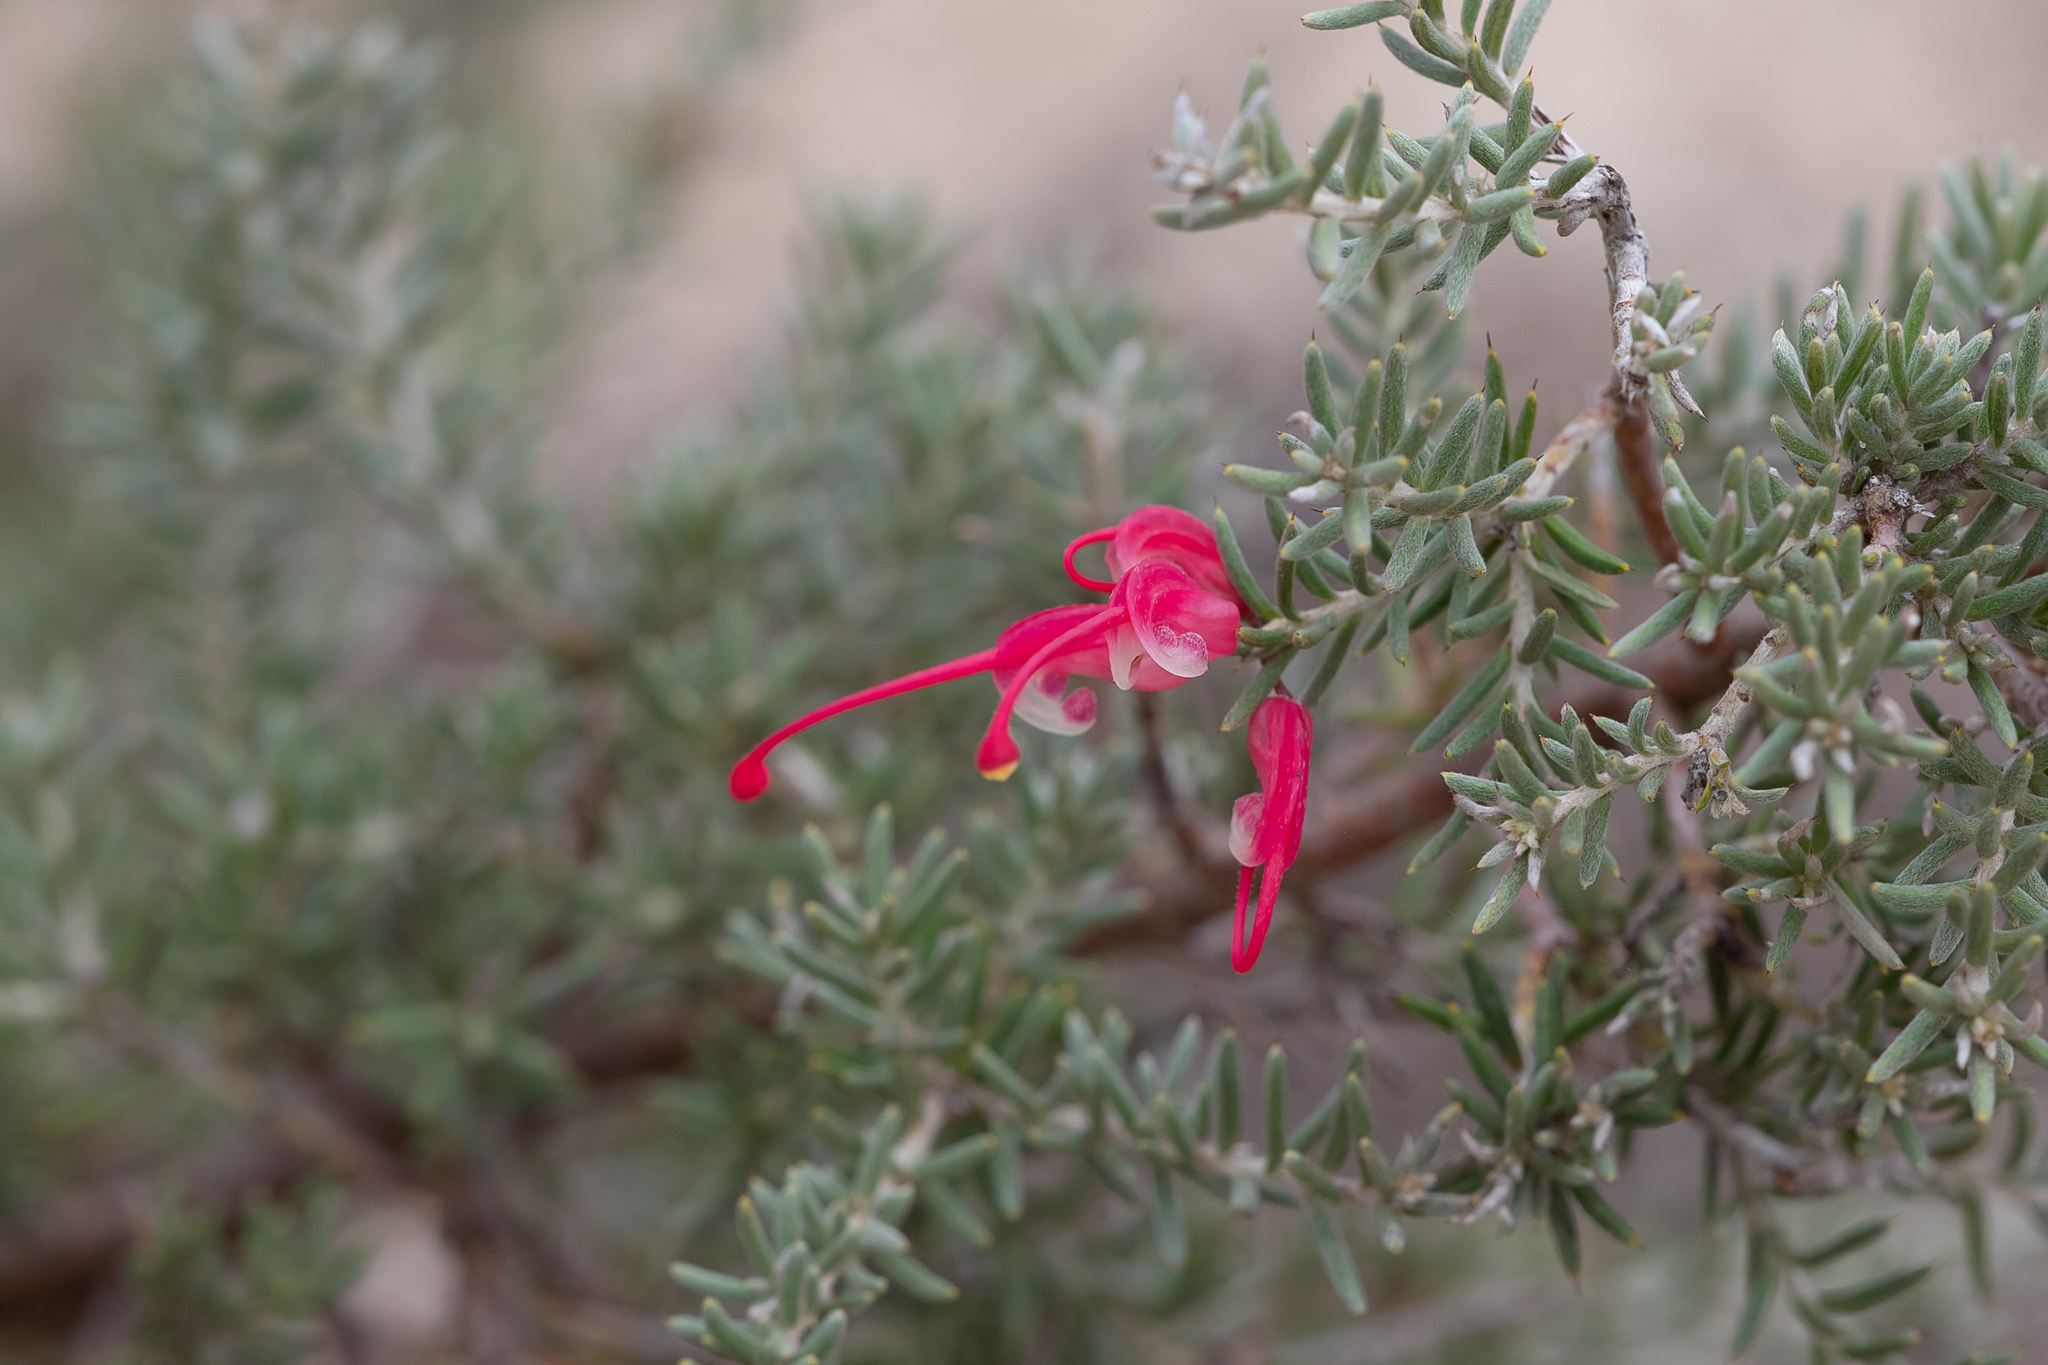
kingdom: Plantae
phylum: Tracheophyta
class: Magnoliopsida
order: Proteales
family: Proteaceae
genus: Grevillea
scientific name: Grevillea lavandulacea
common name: Lavender grevillea
